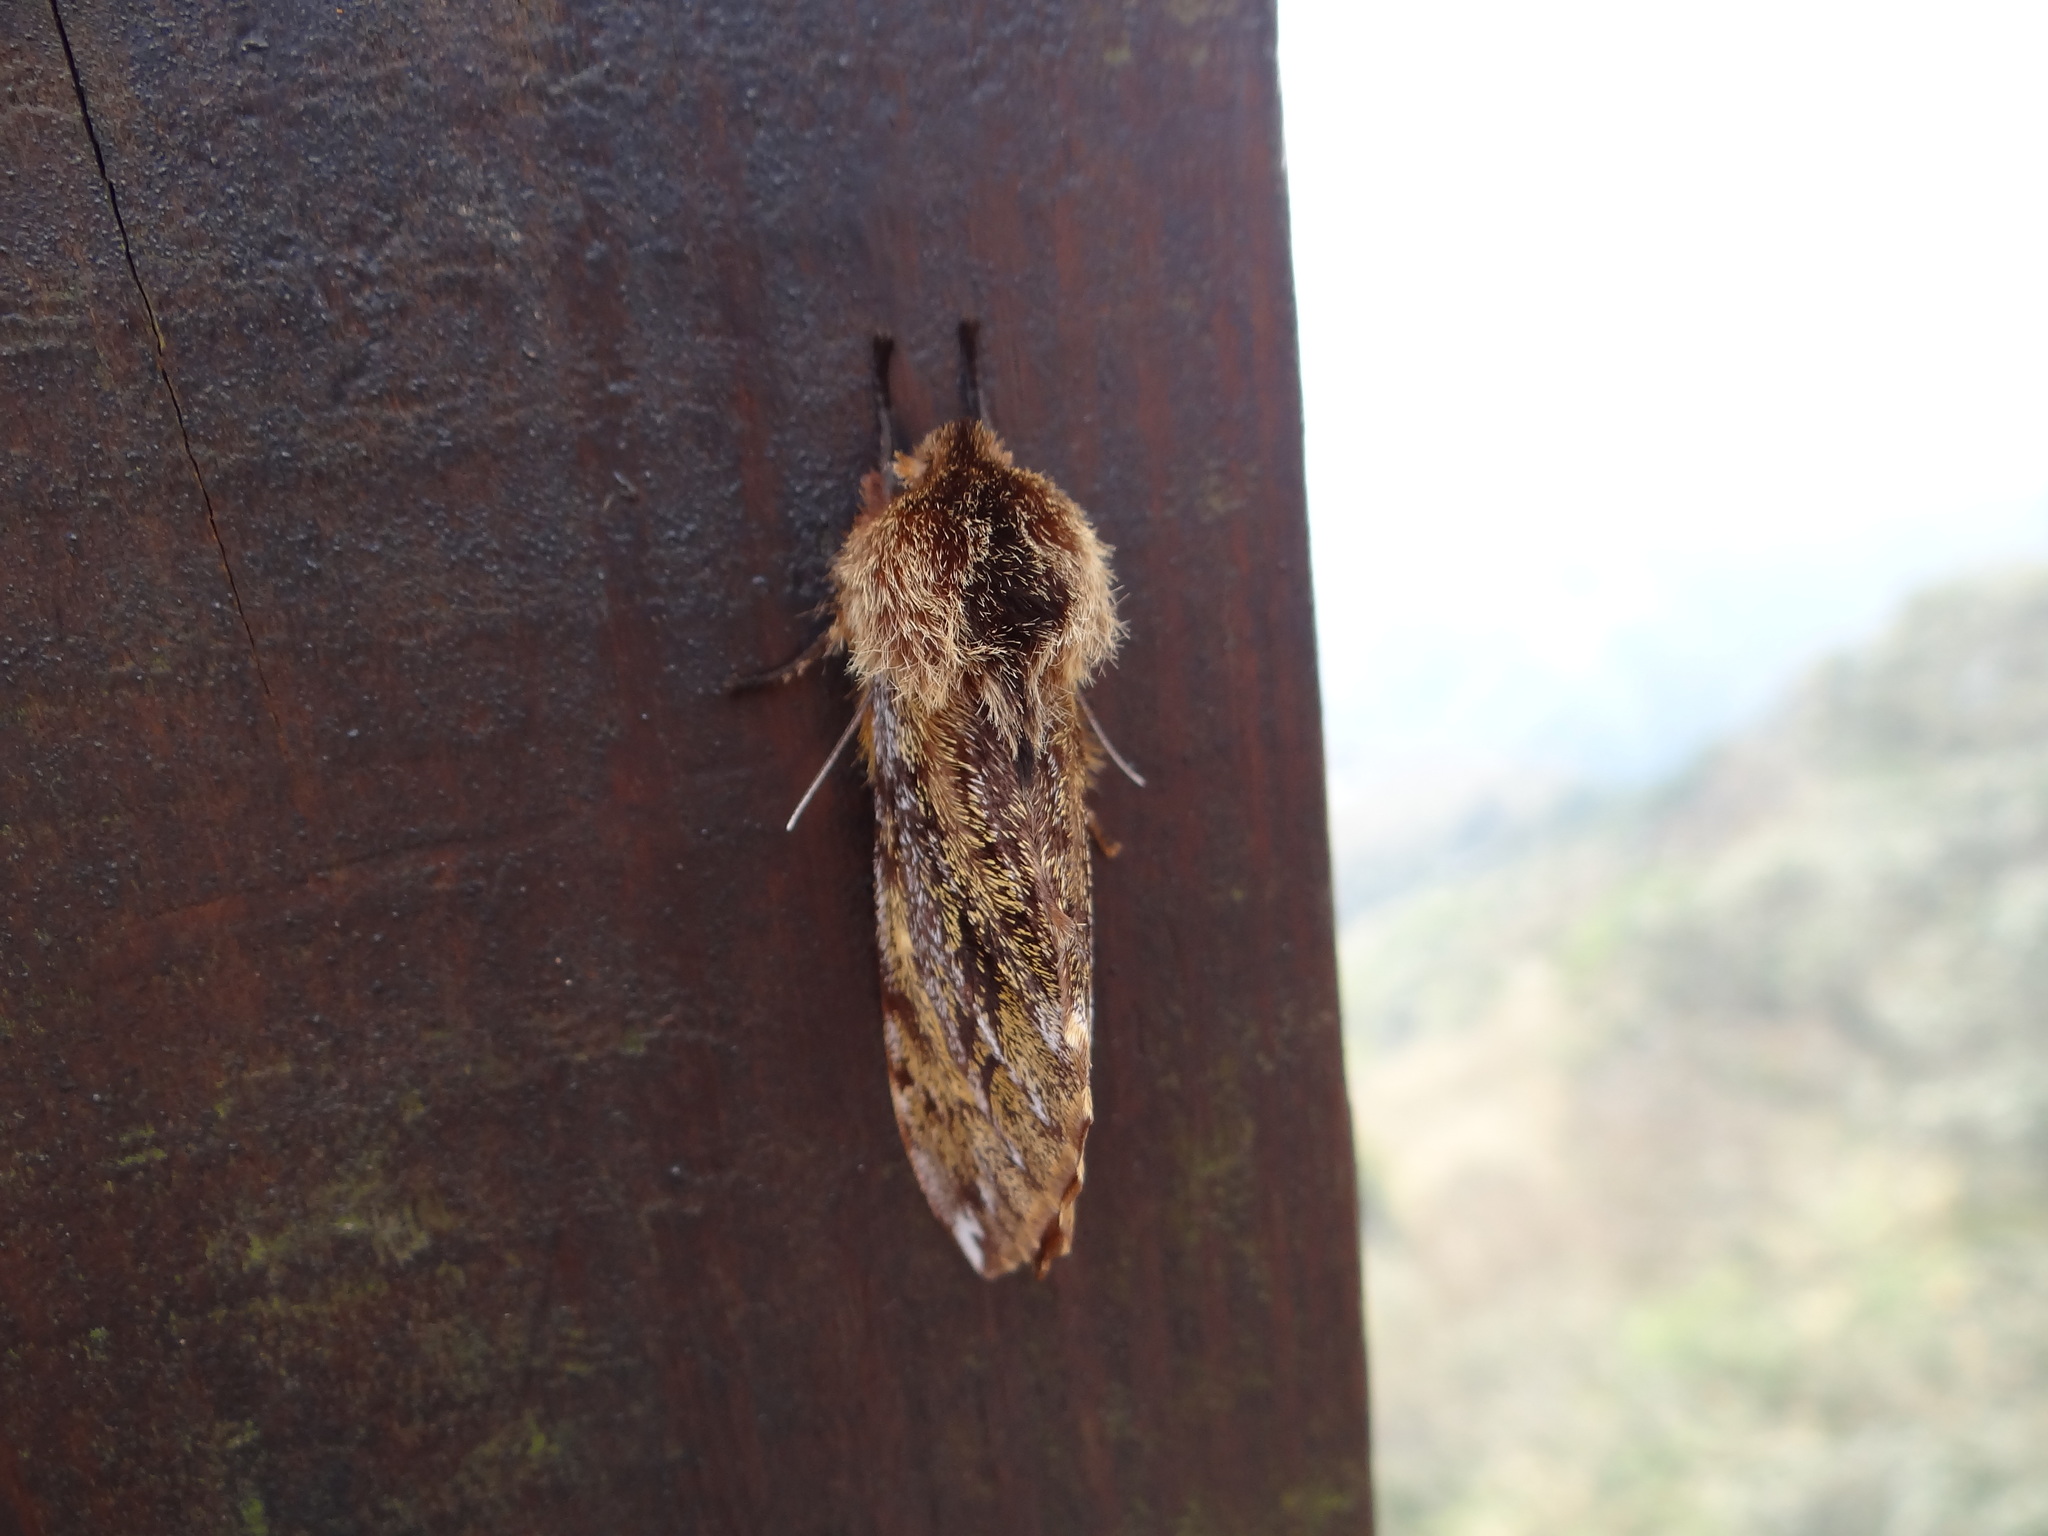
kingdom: Animalia
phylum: Arthropoda
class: Insecta
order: Lepidoptera
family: Sphingidae
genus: Pentateucha
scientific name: Pentateucha inouei
